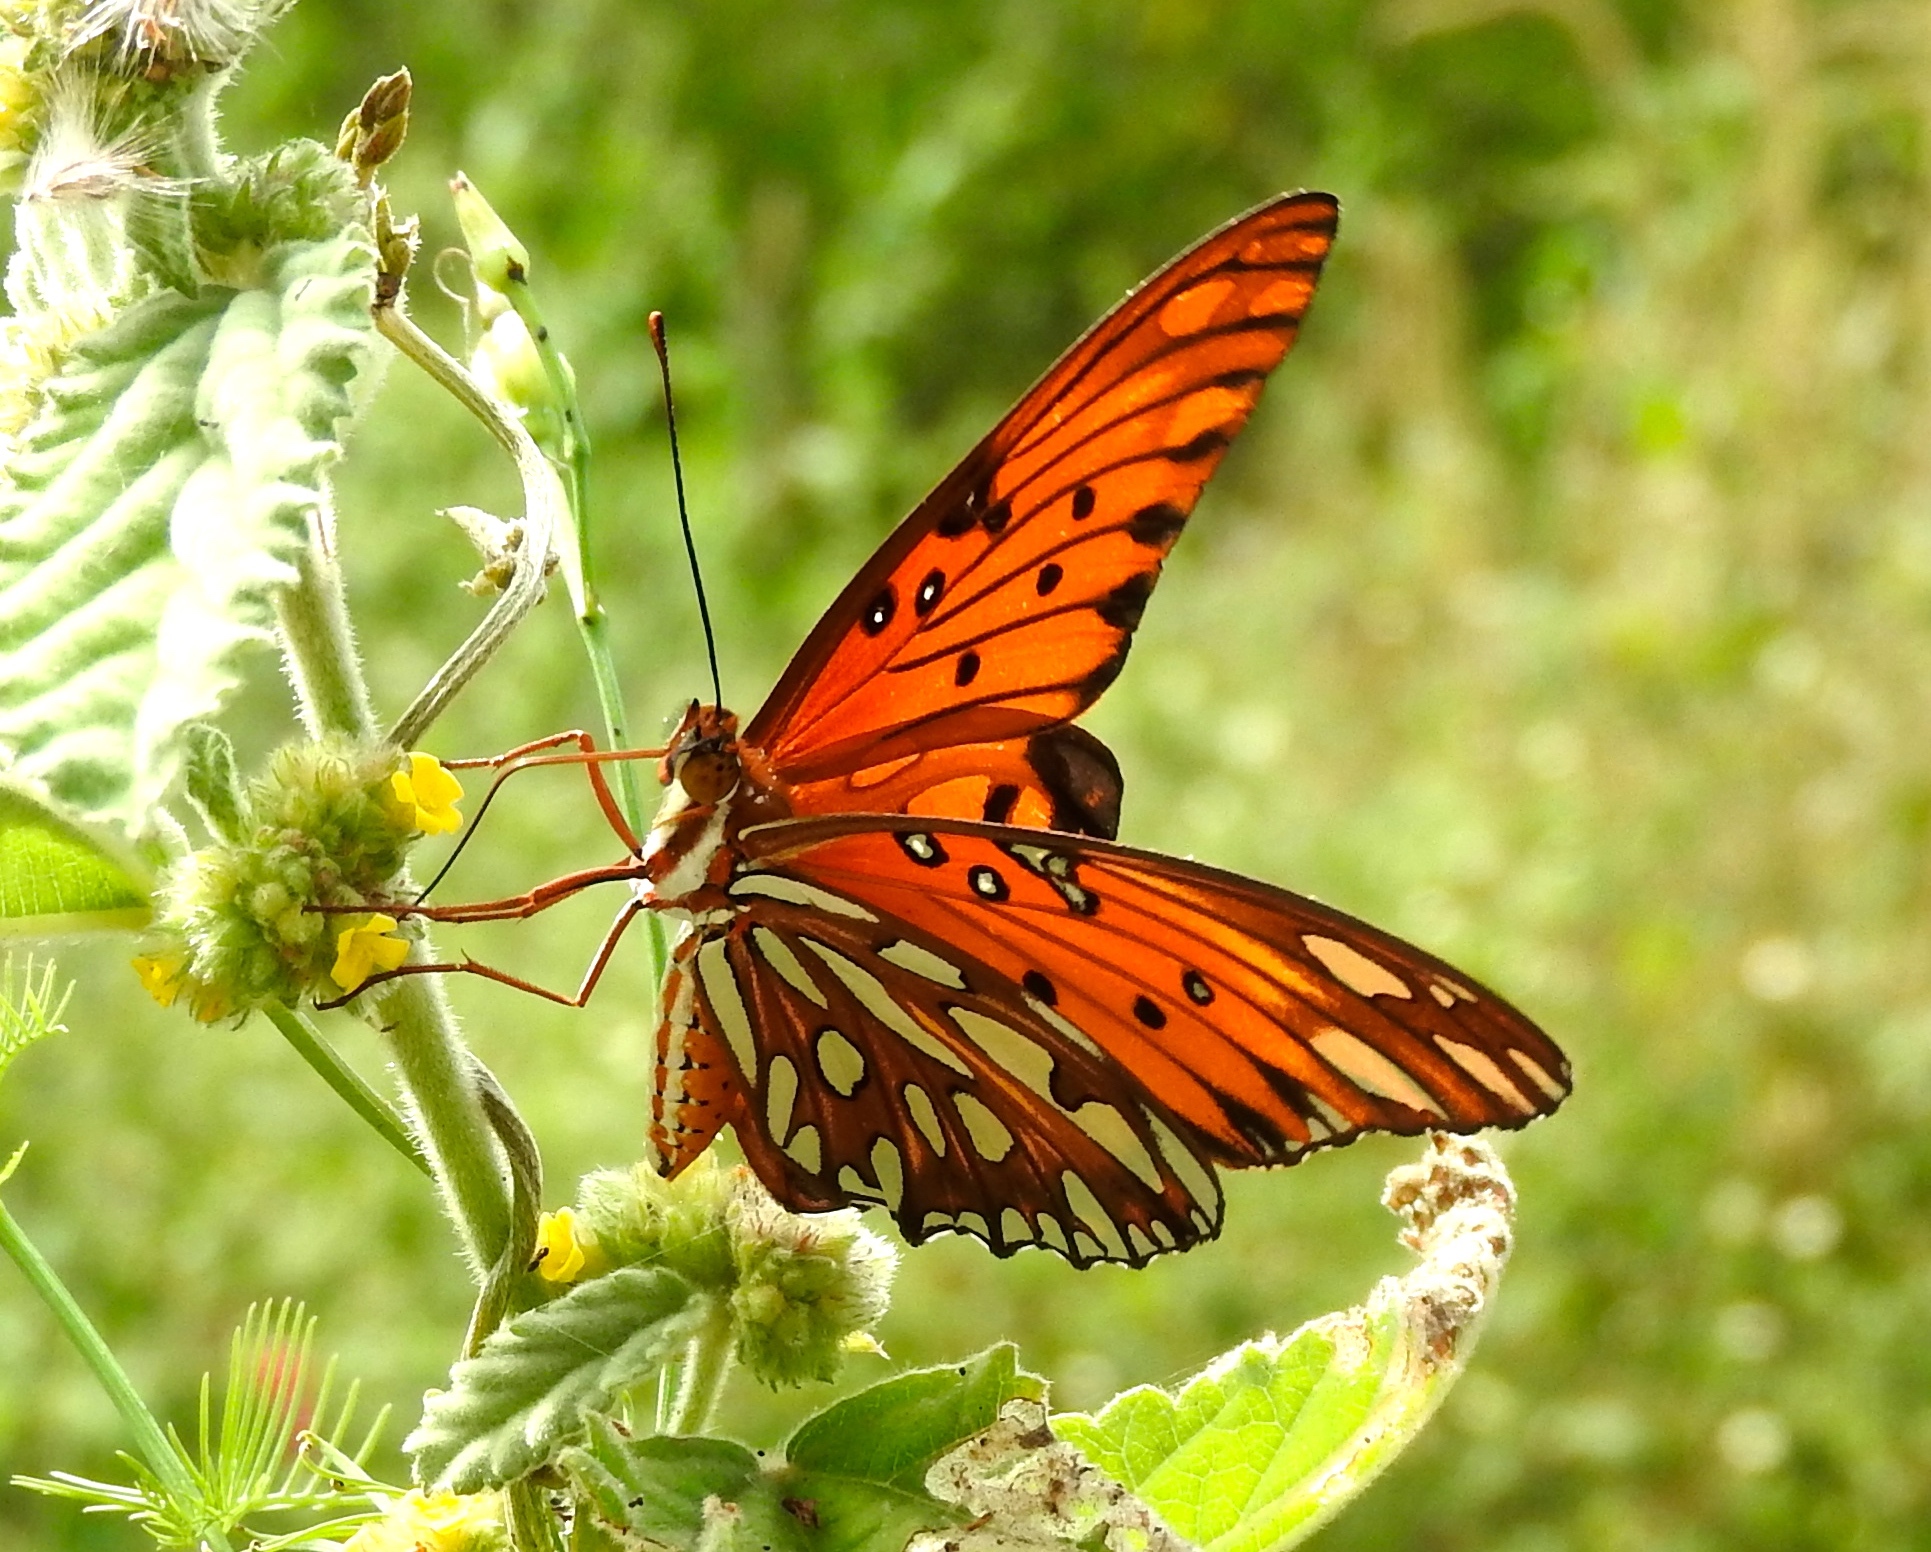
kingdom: Animalia
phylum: Arthropoda
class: Insecta
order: Lepidoptera
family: Nymphalidae
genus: Dione
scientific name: Dione vanillae
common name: Gulf fritillary
